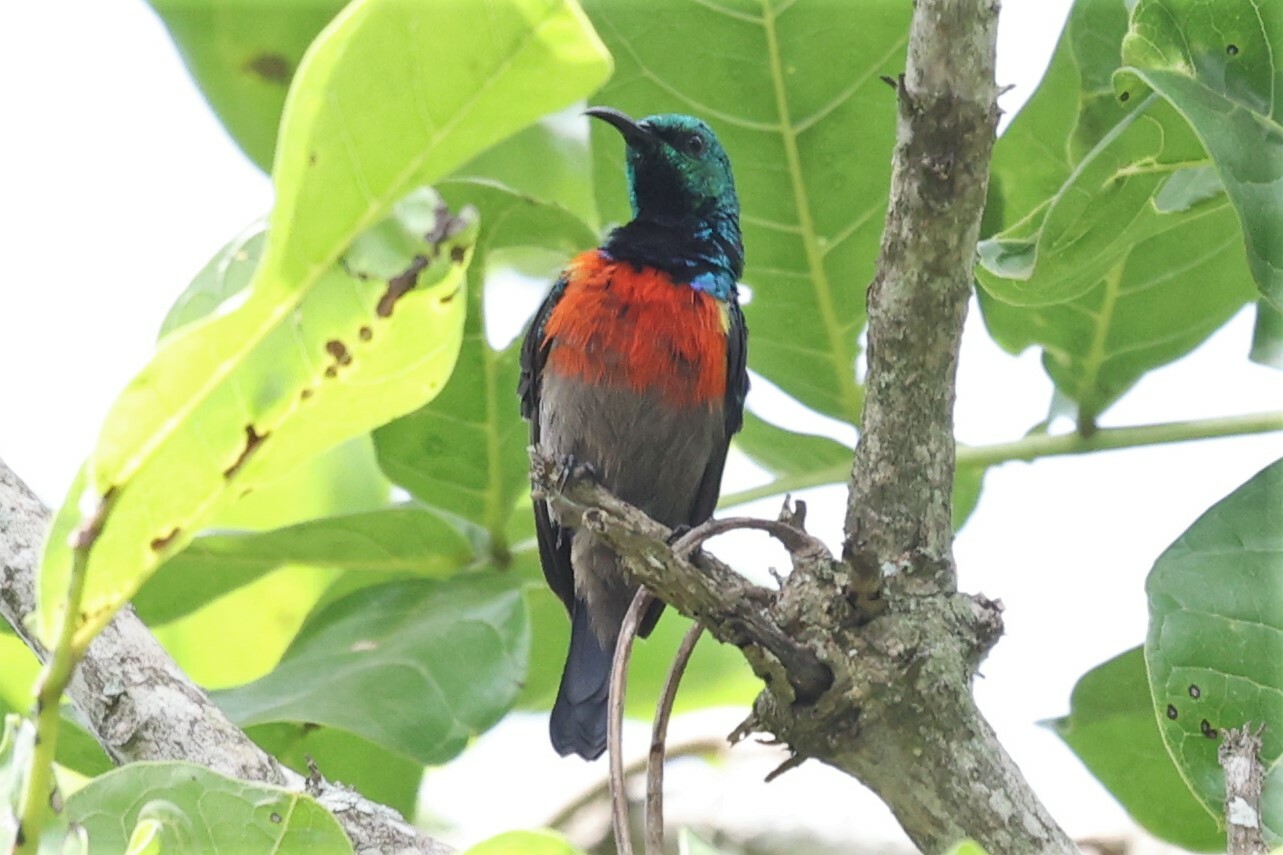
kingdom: Animalia
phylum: Chordata
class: Aves
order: Passeriformes
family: Nectariniidae
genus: Cinnyris
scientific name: Cinnyris chloropygius
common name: Olive-bellied sunbird
